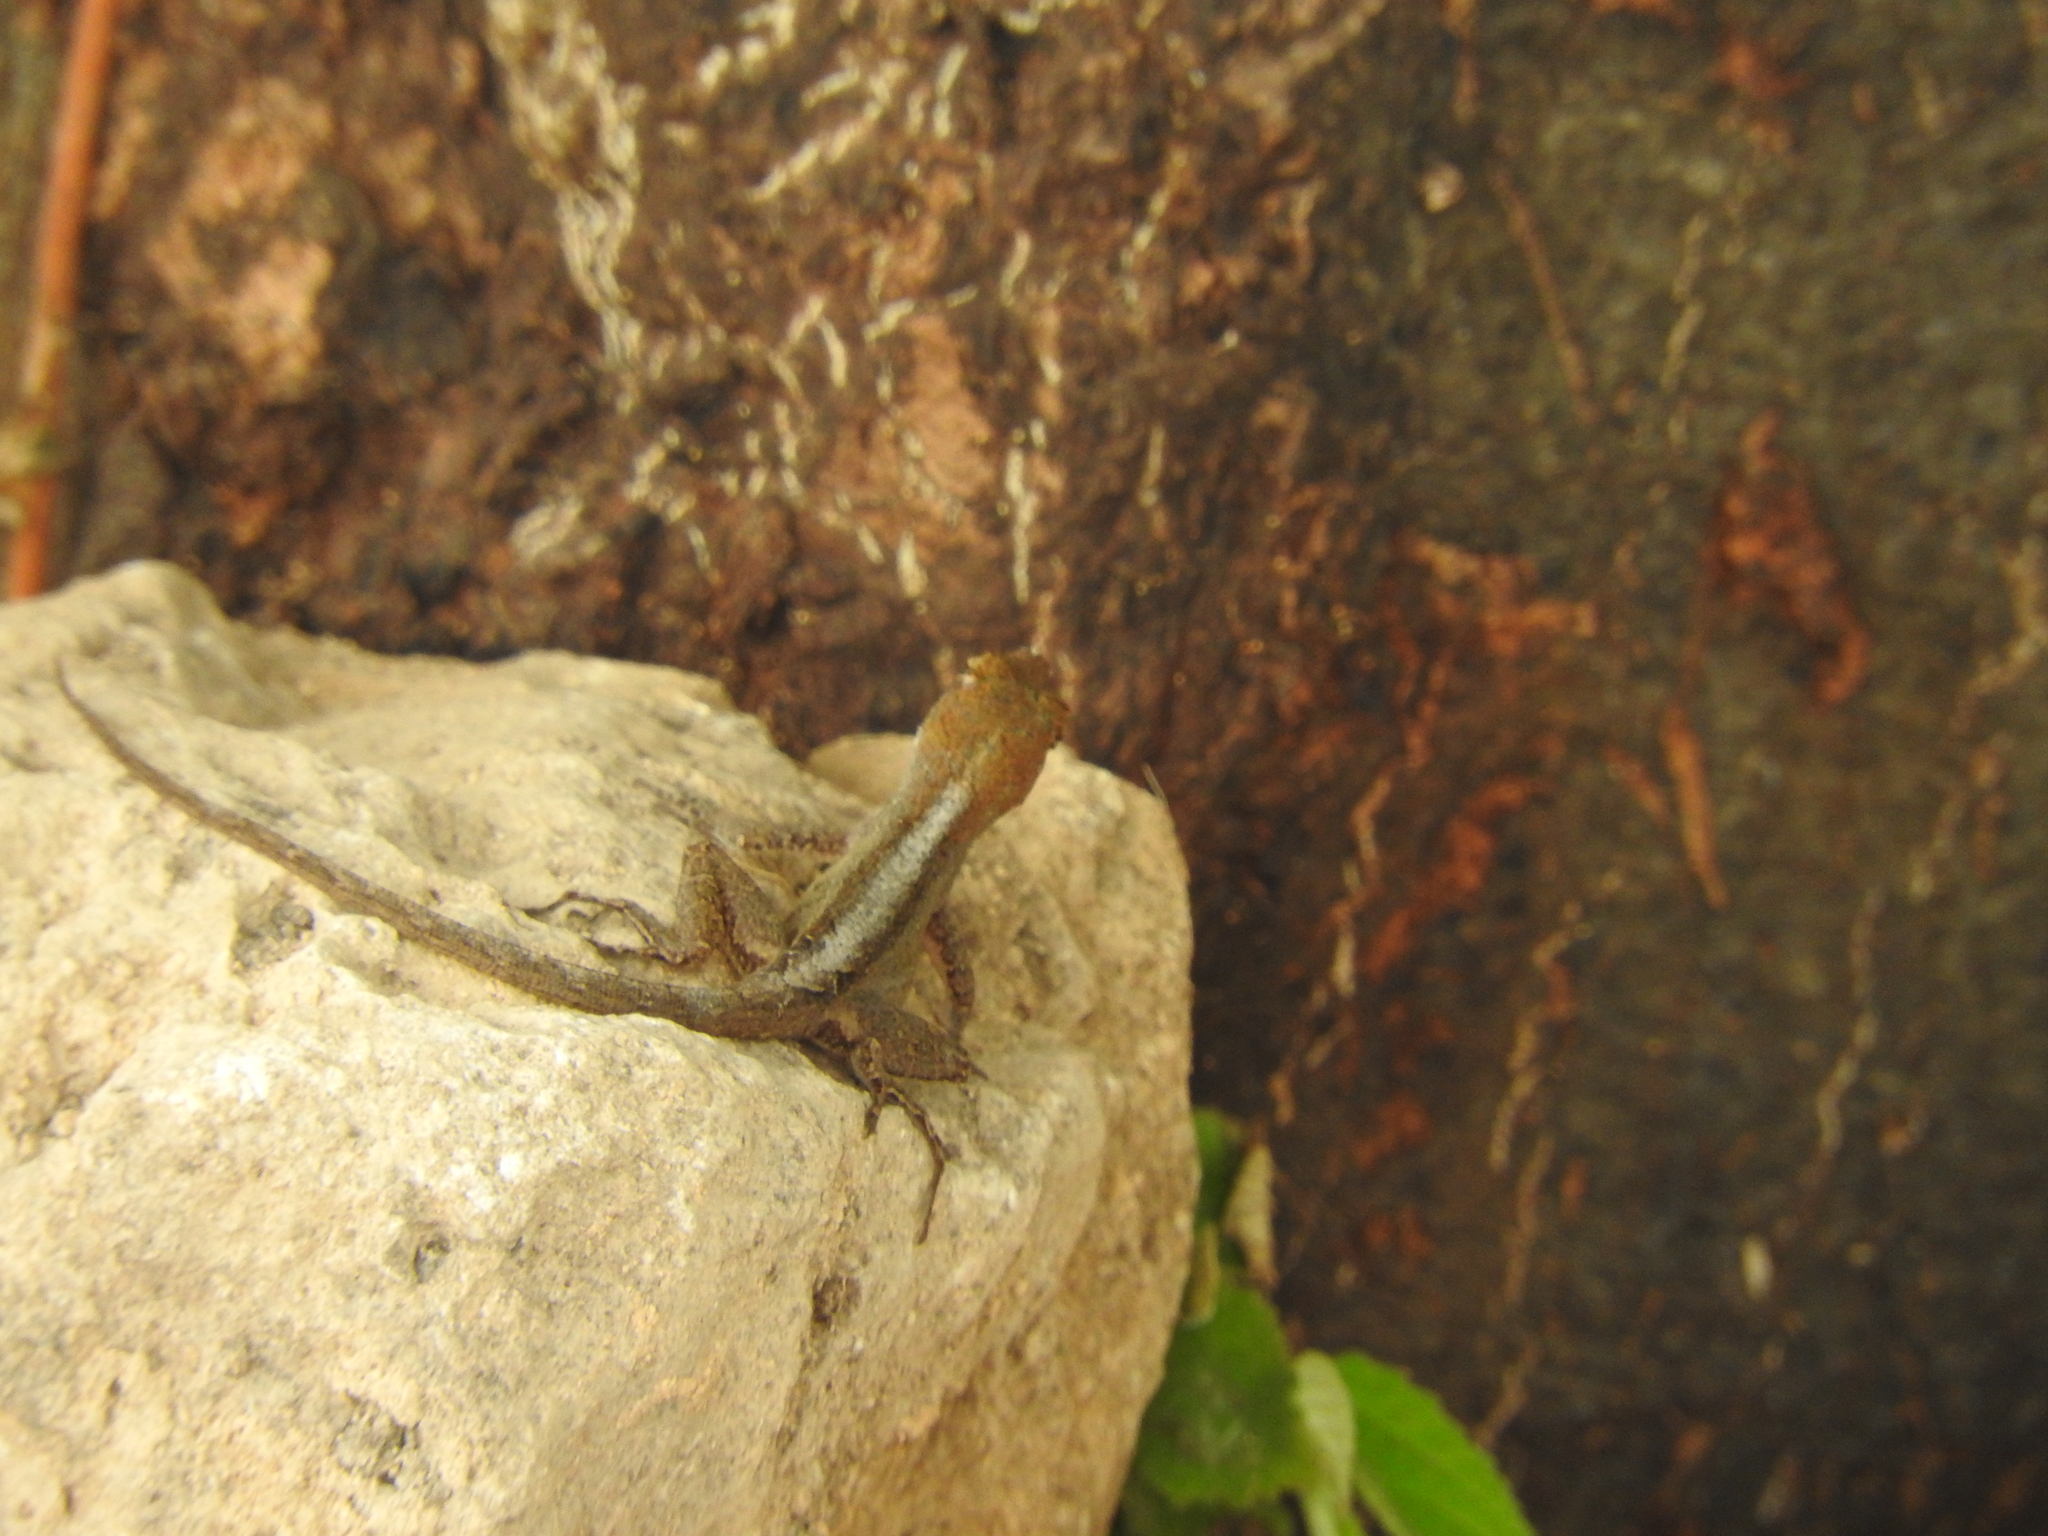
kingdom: Animalia
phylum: Chordata
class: Squamata
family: Dactyloidae
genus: Anolis
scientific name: Anolis sagrei
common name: Brown anole
